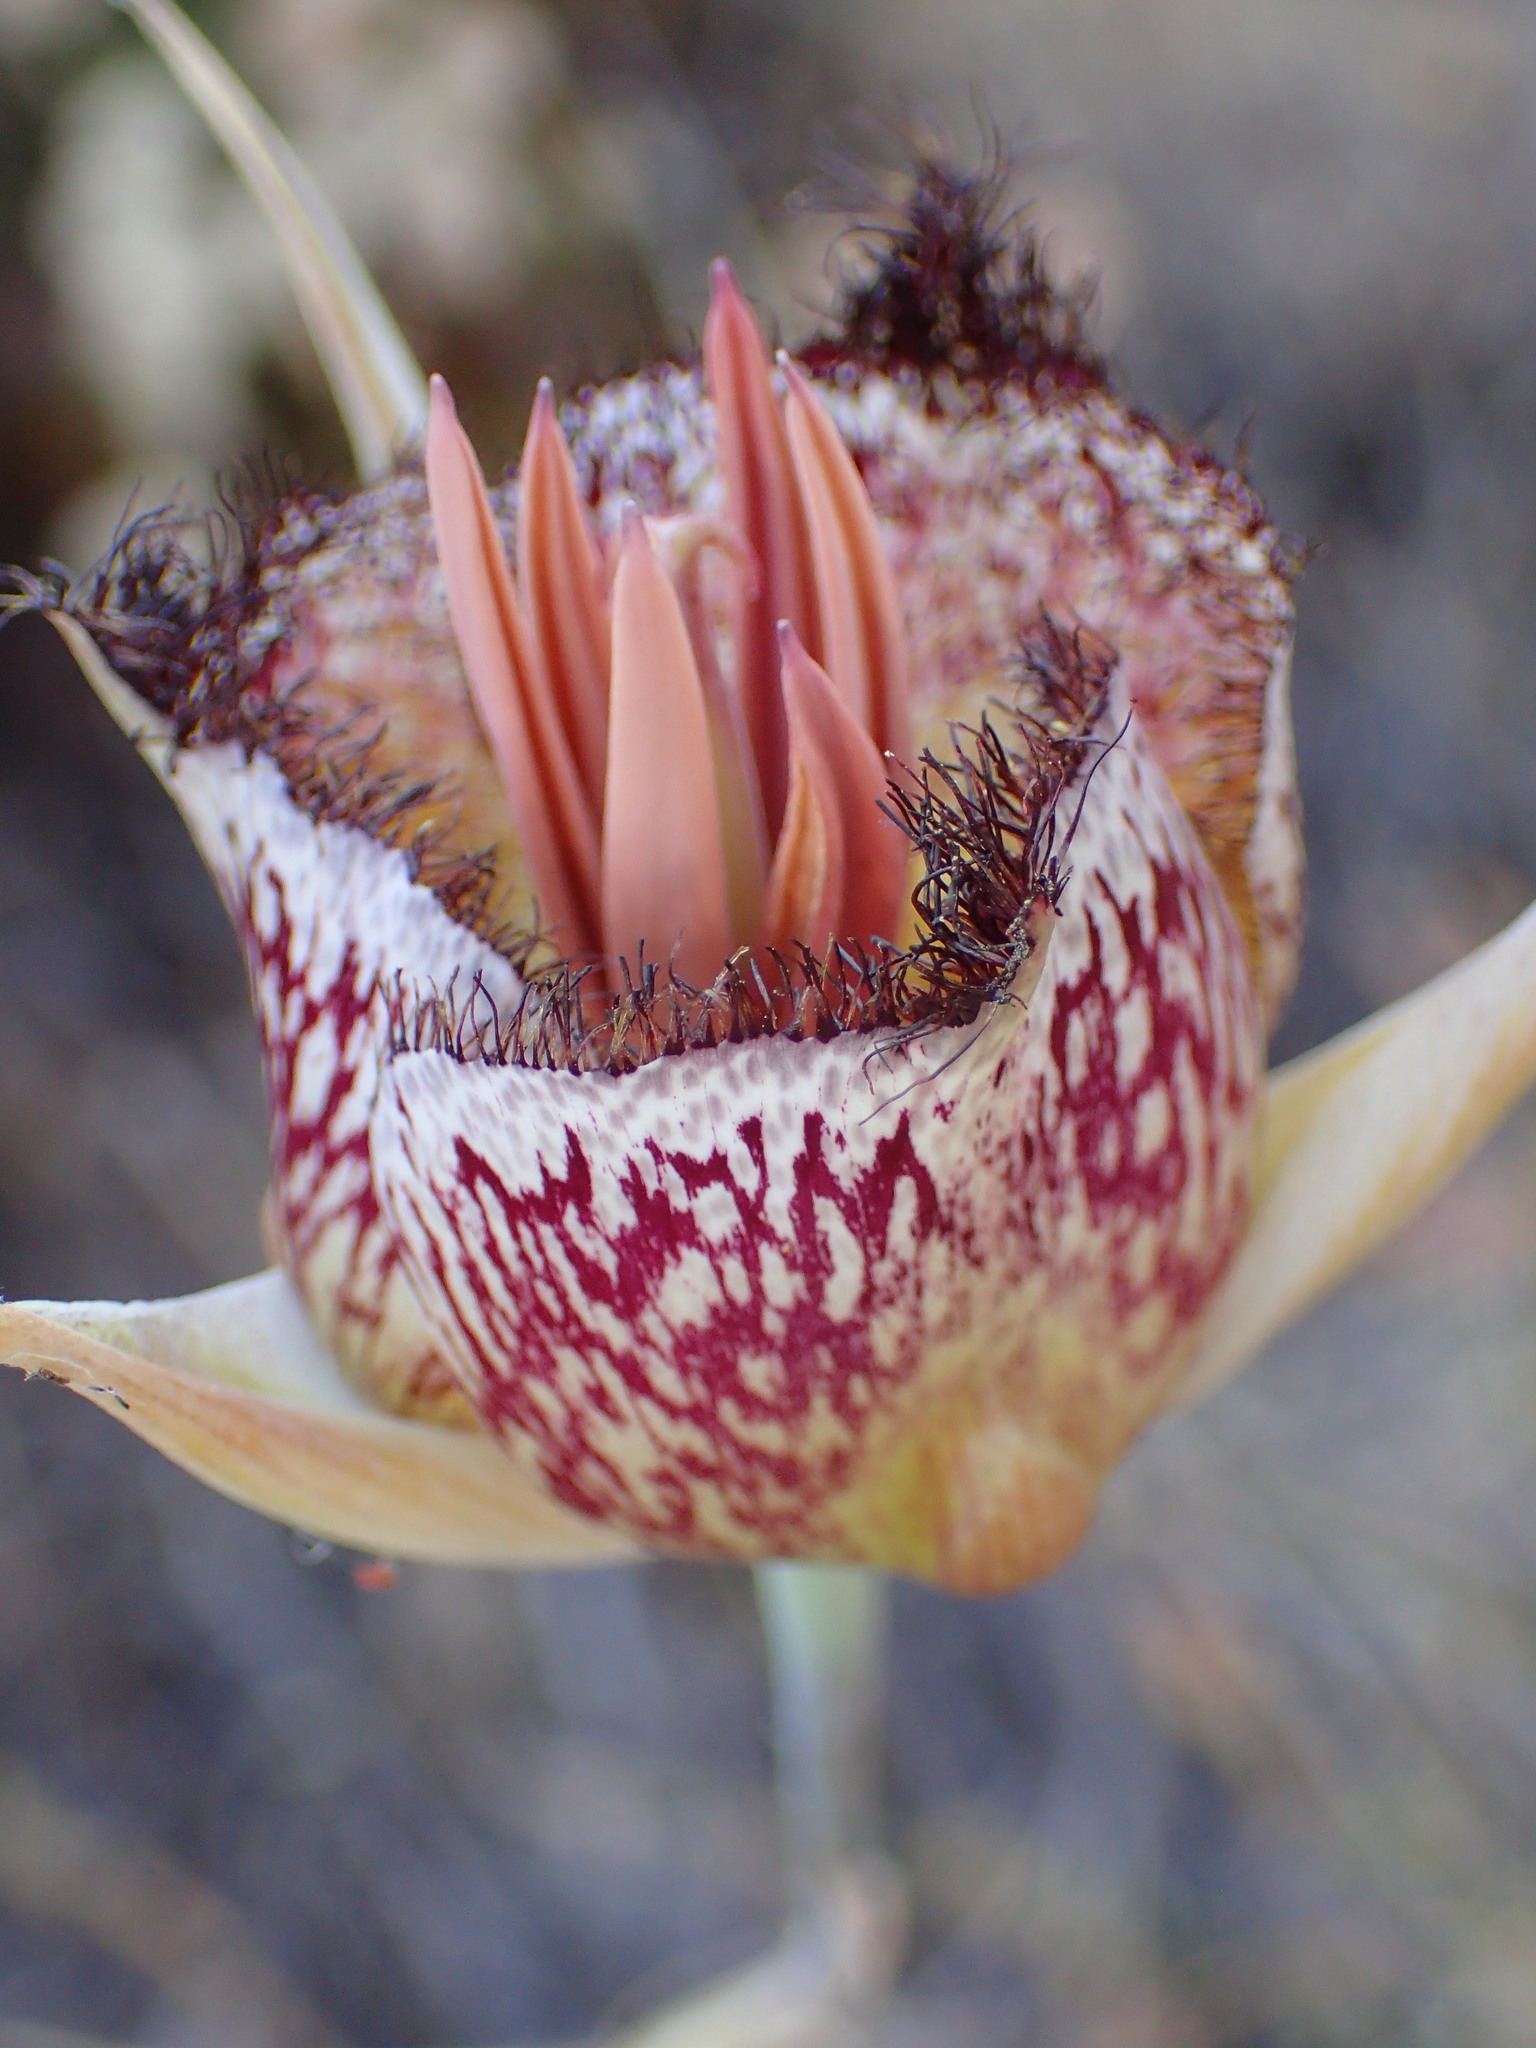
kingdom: Plantae
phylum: Tracheophyta
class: Liliopsida
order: Liliales
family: Liliaceae
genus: Calochortus
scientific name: Calochortus fimbriatus
